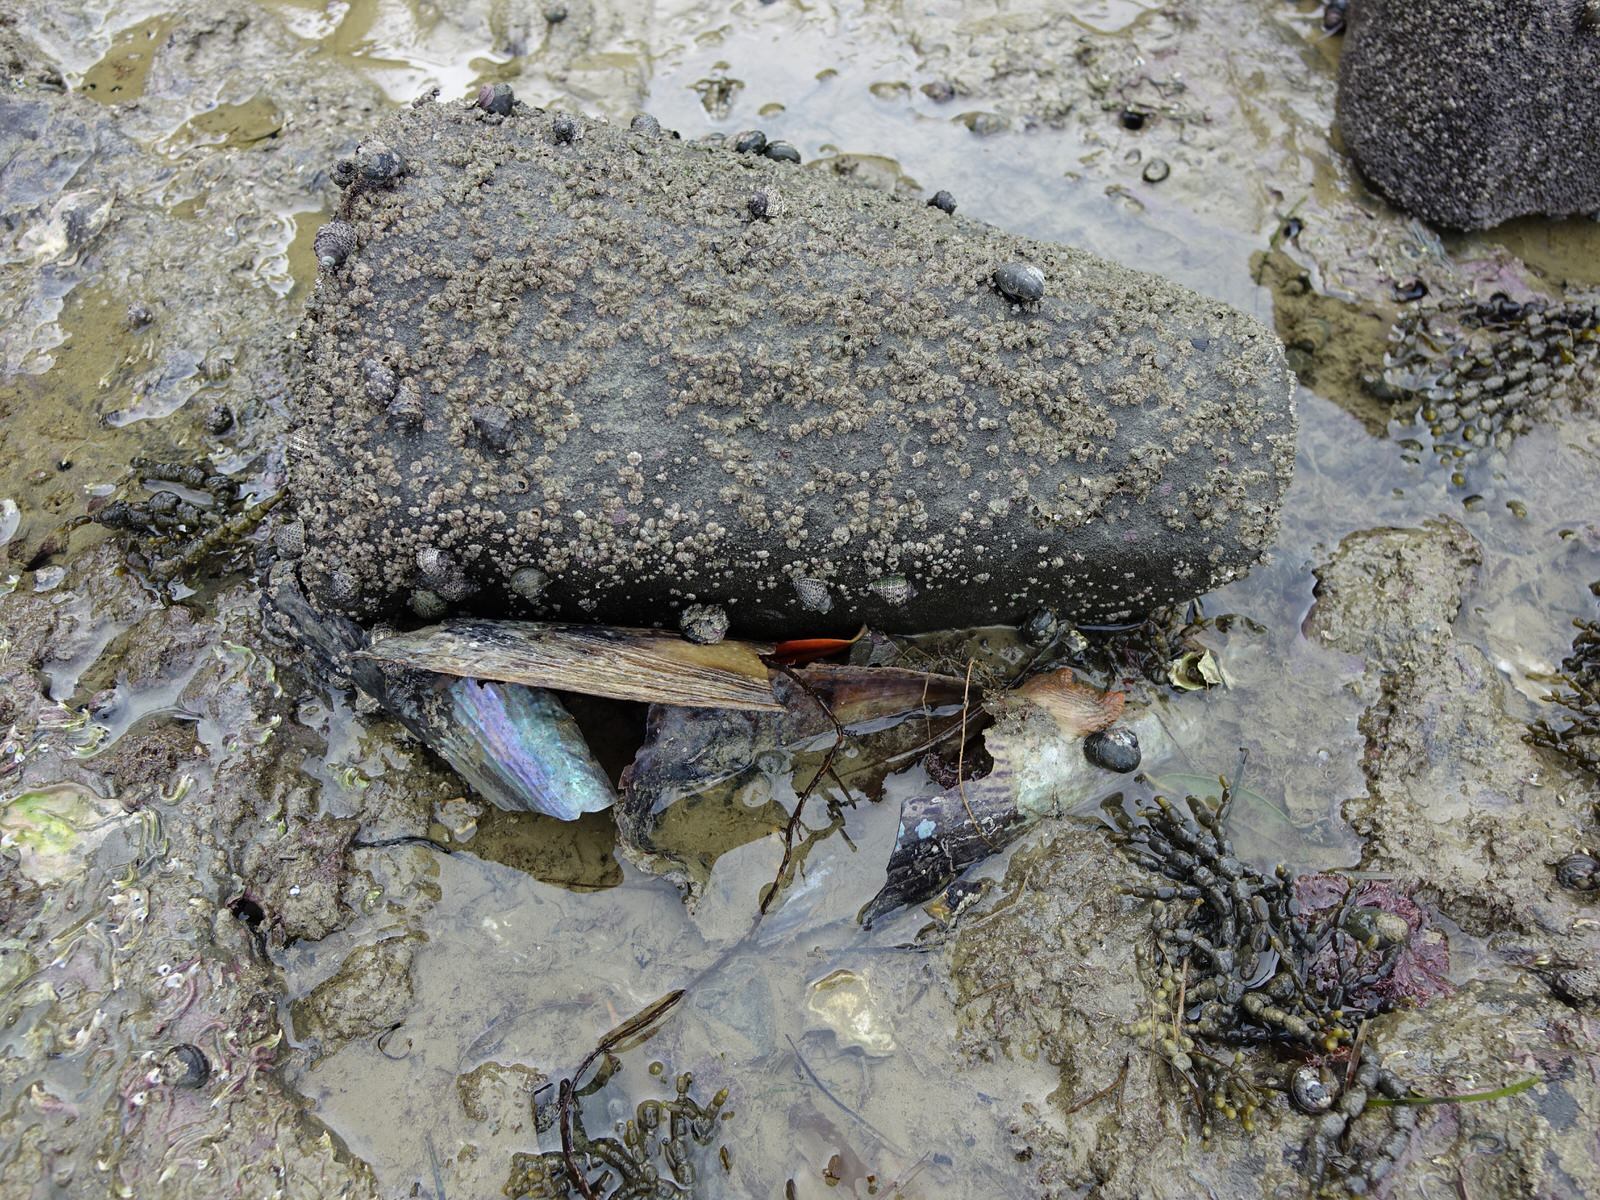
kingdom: Animalia
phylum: Chordata
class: Ascidiacea
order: Stolidobranchia
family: Styelidae
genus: Cnemidocarpa
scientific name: Cnemidocarpa bicornuta
